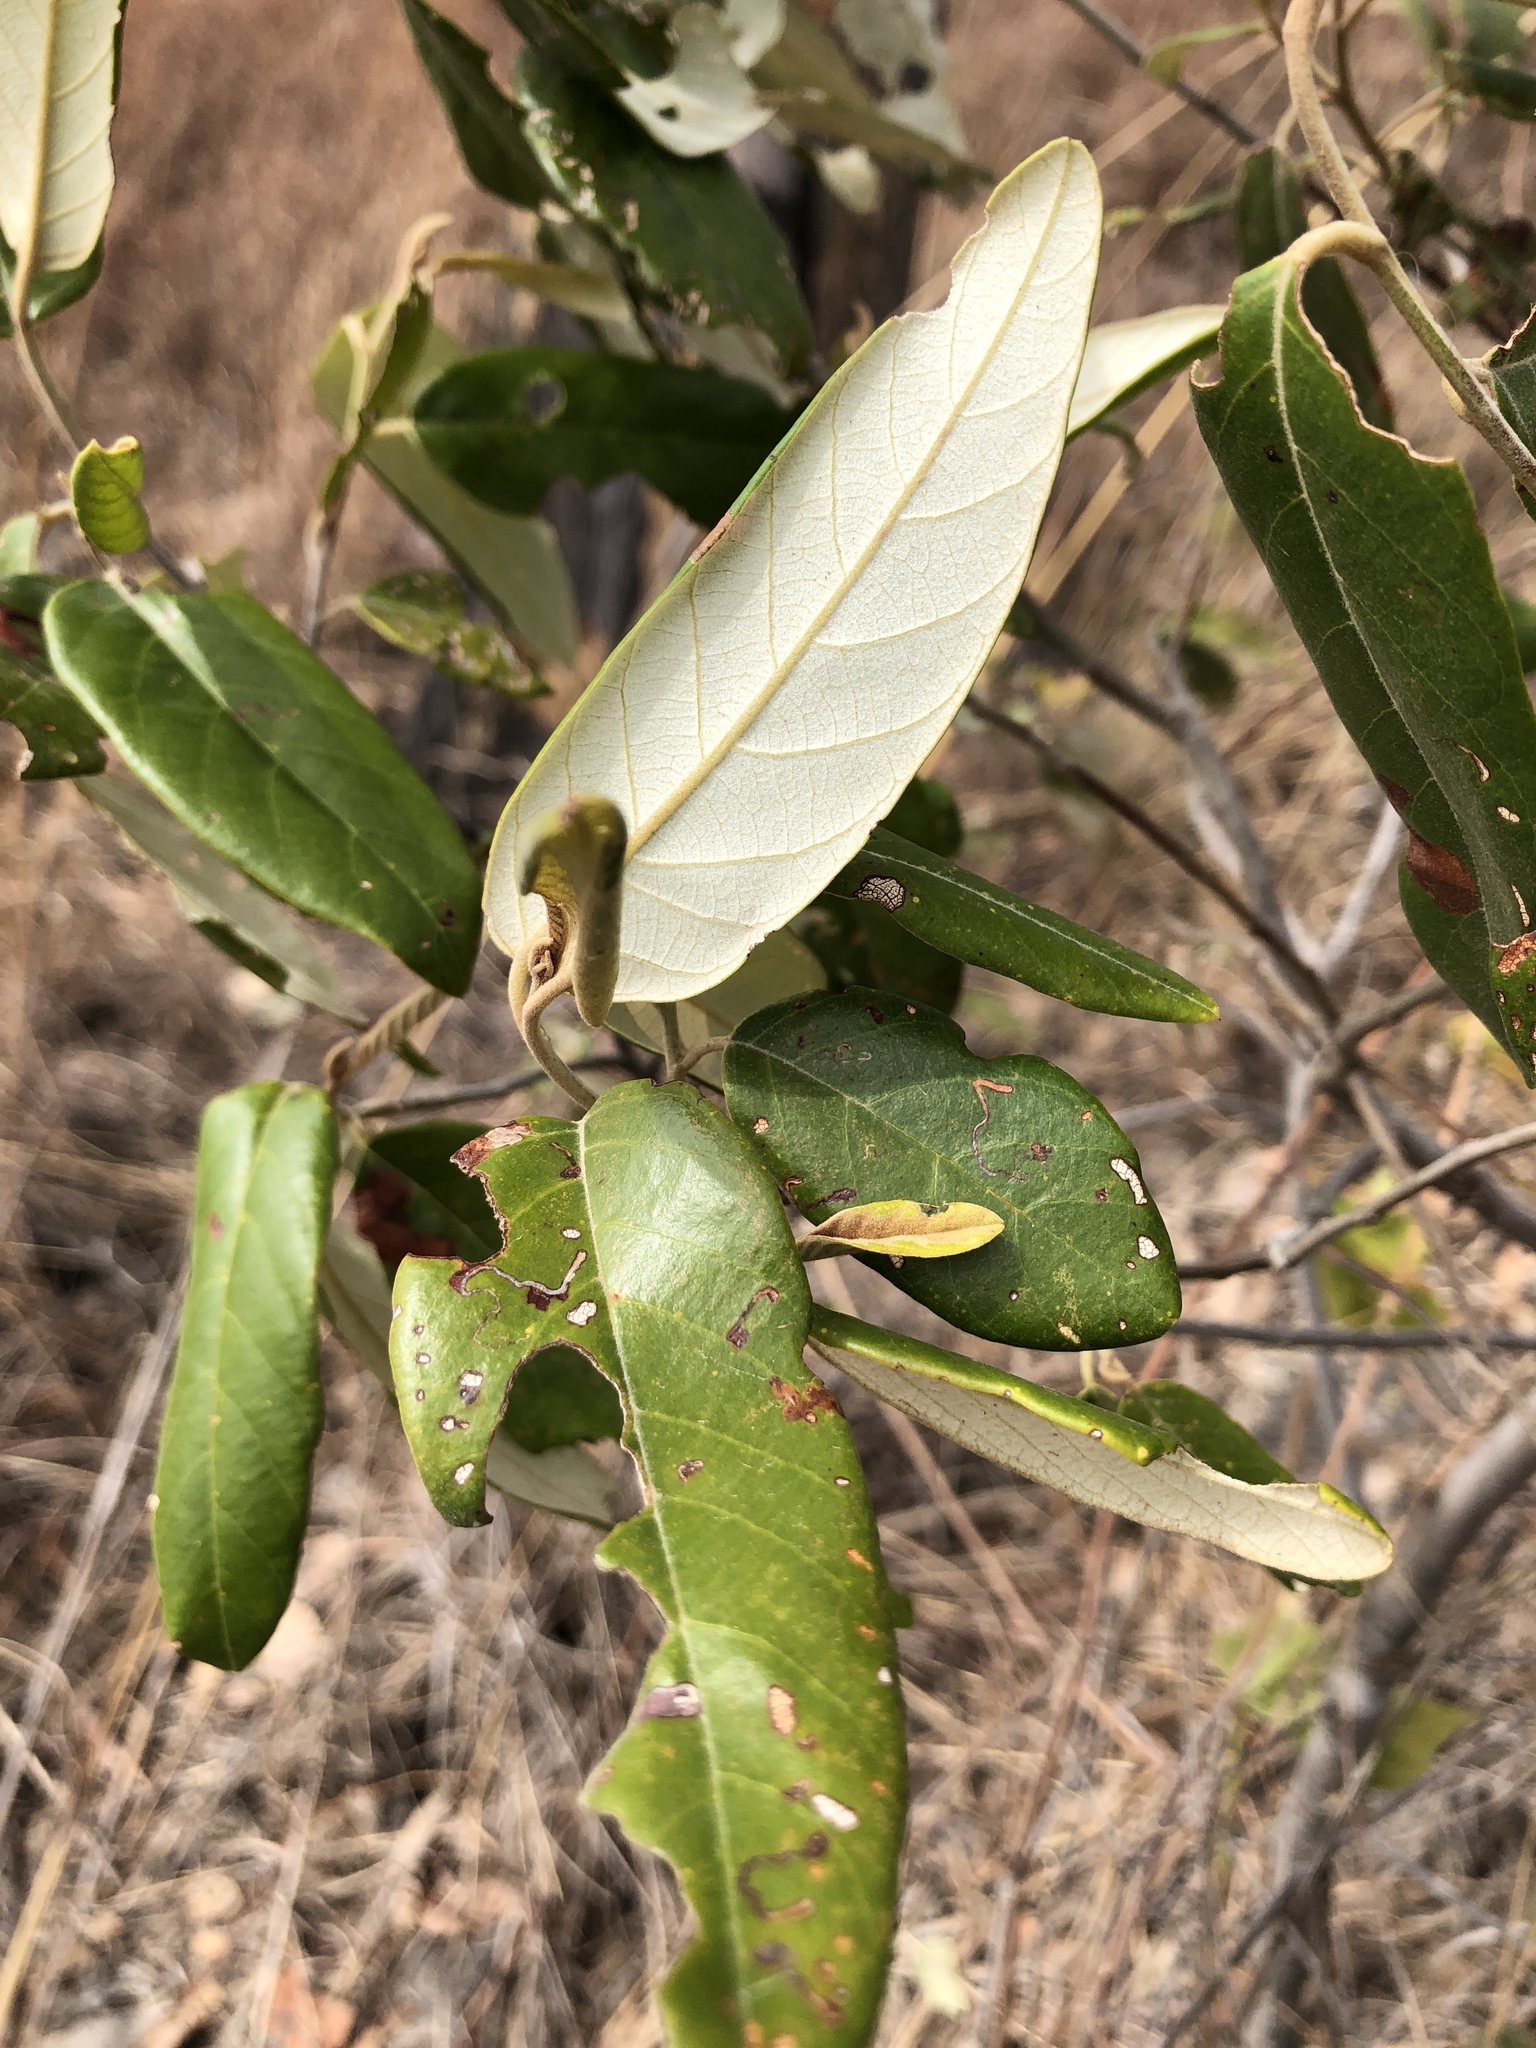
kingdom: Plantae
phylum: Tracheophyta
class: Magnoliopsida
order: Rosales
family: Rhamnaceae
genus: Alphitonia
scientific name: Alphitonia excelsa
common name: Red ash
